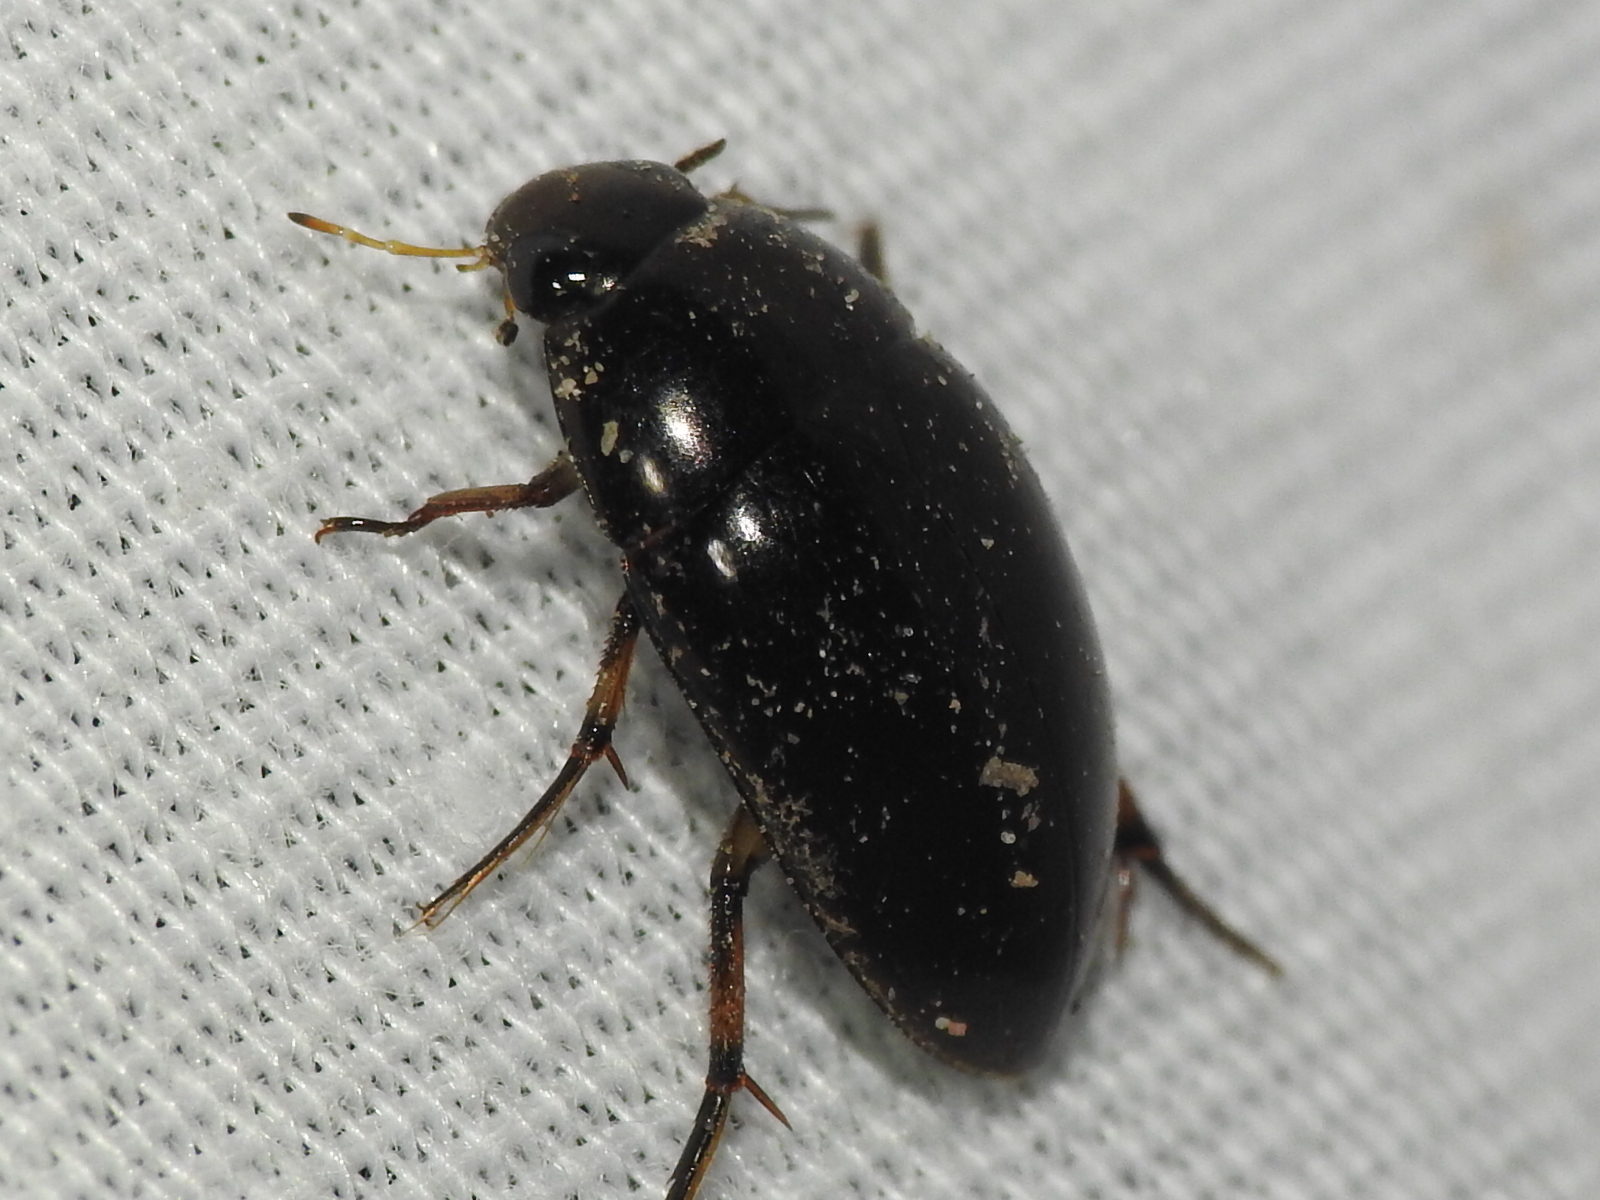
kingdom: Animalia
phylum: Arthropoda
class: Insecta
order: Coleoptera
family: Hydrophilidae
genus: Tropisternus
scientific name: Tropisternus blatchleyi
